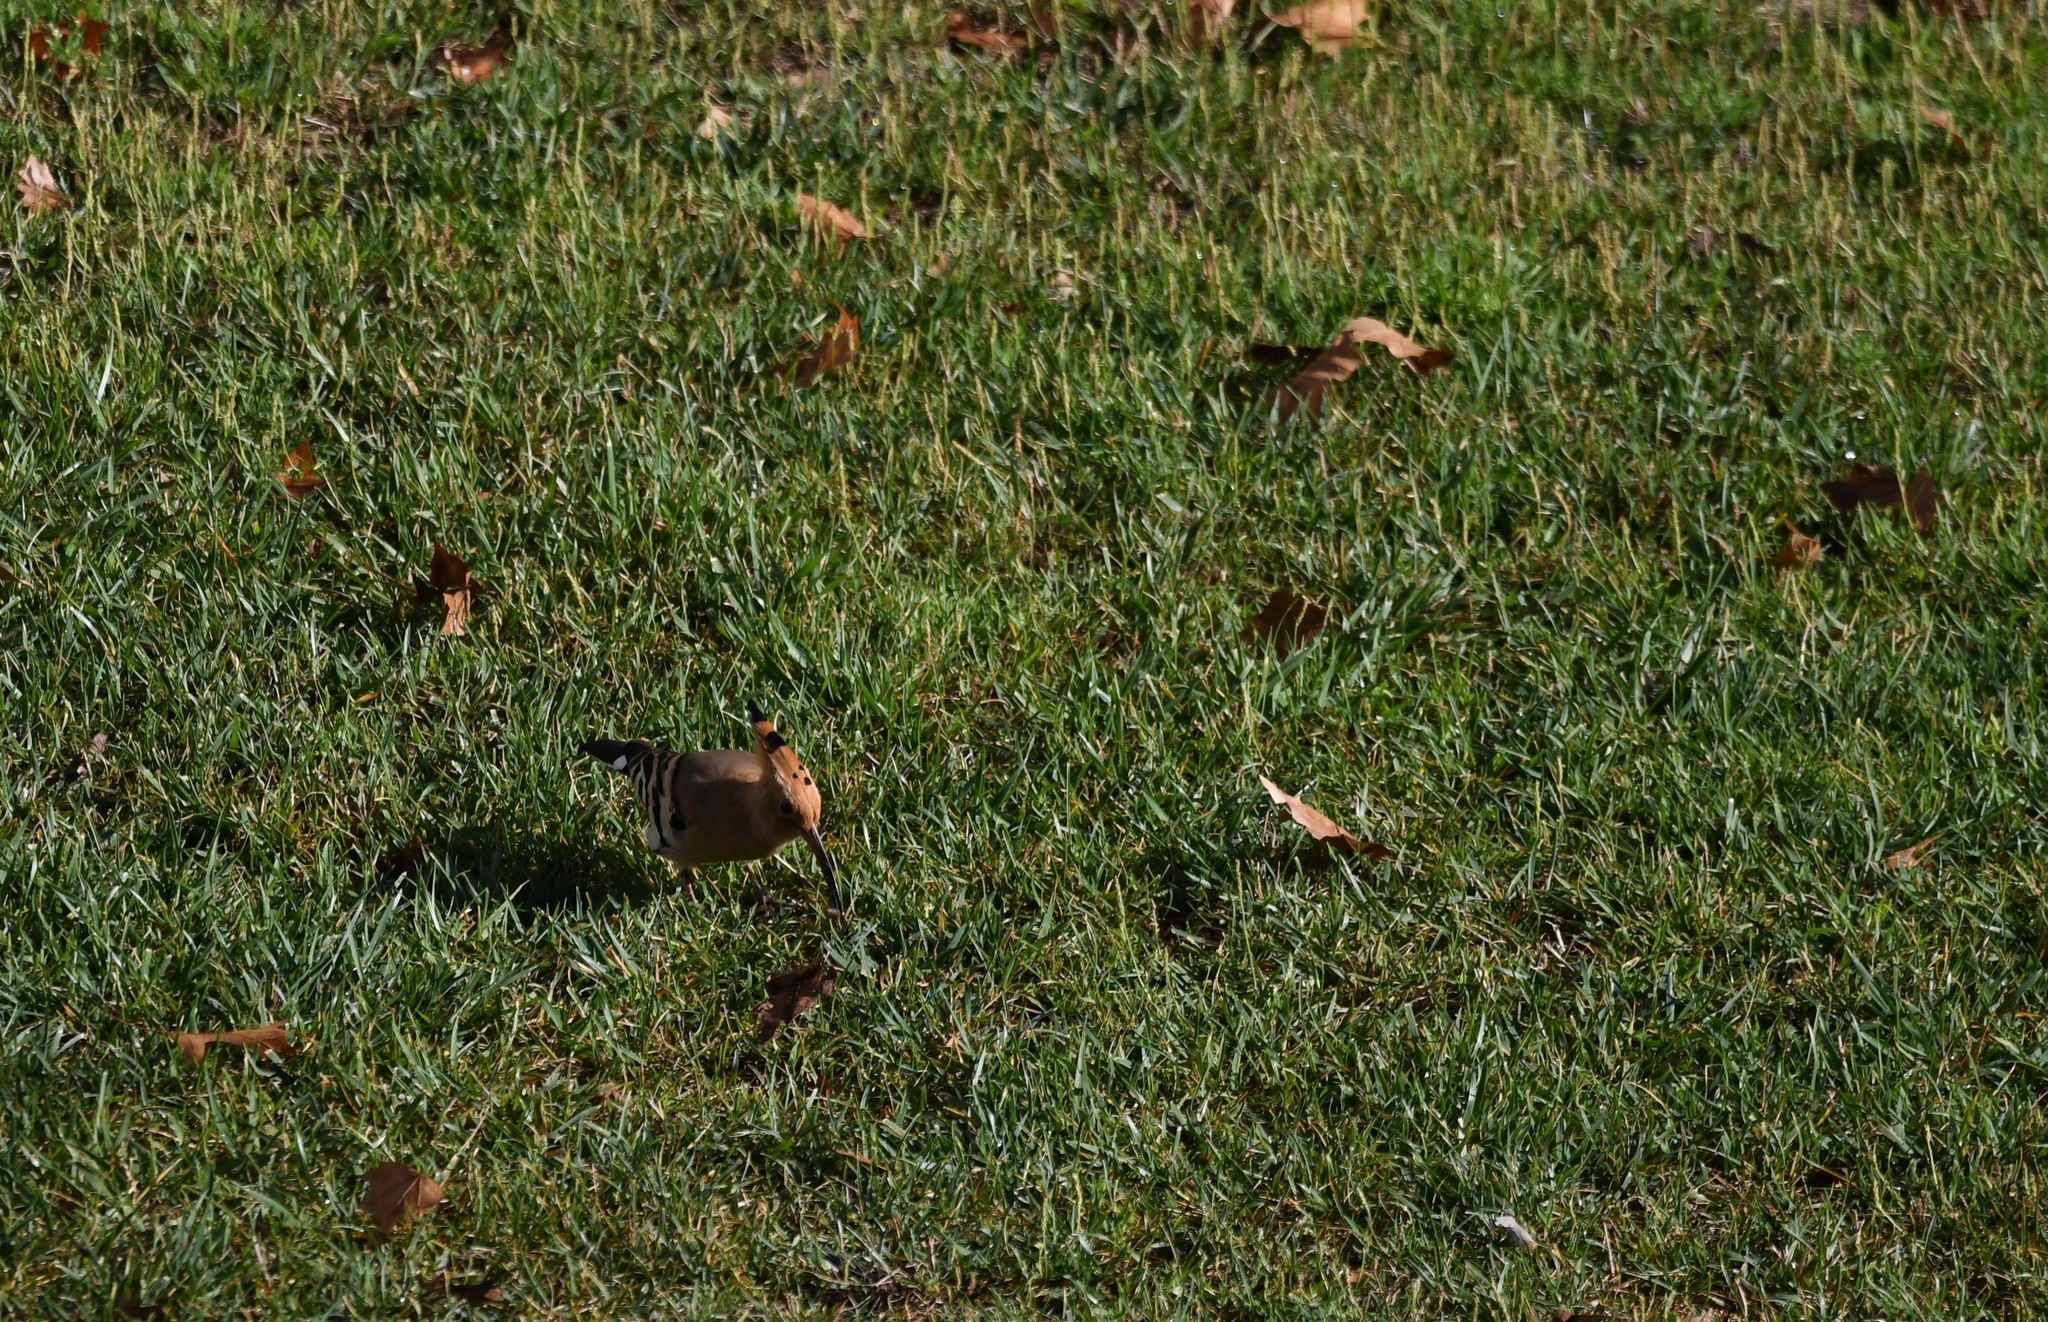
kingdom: Animalia
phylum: Chordata
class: Aves
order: Bucerotiformes
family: Upupidae
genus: Upupa
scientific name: Upupa epops
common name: Eurasian hoopoe
